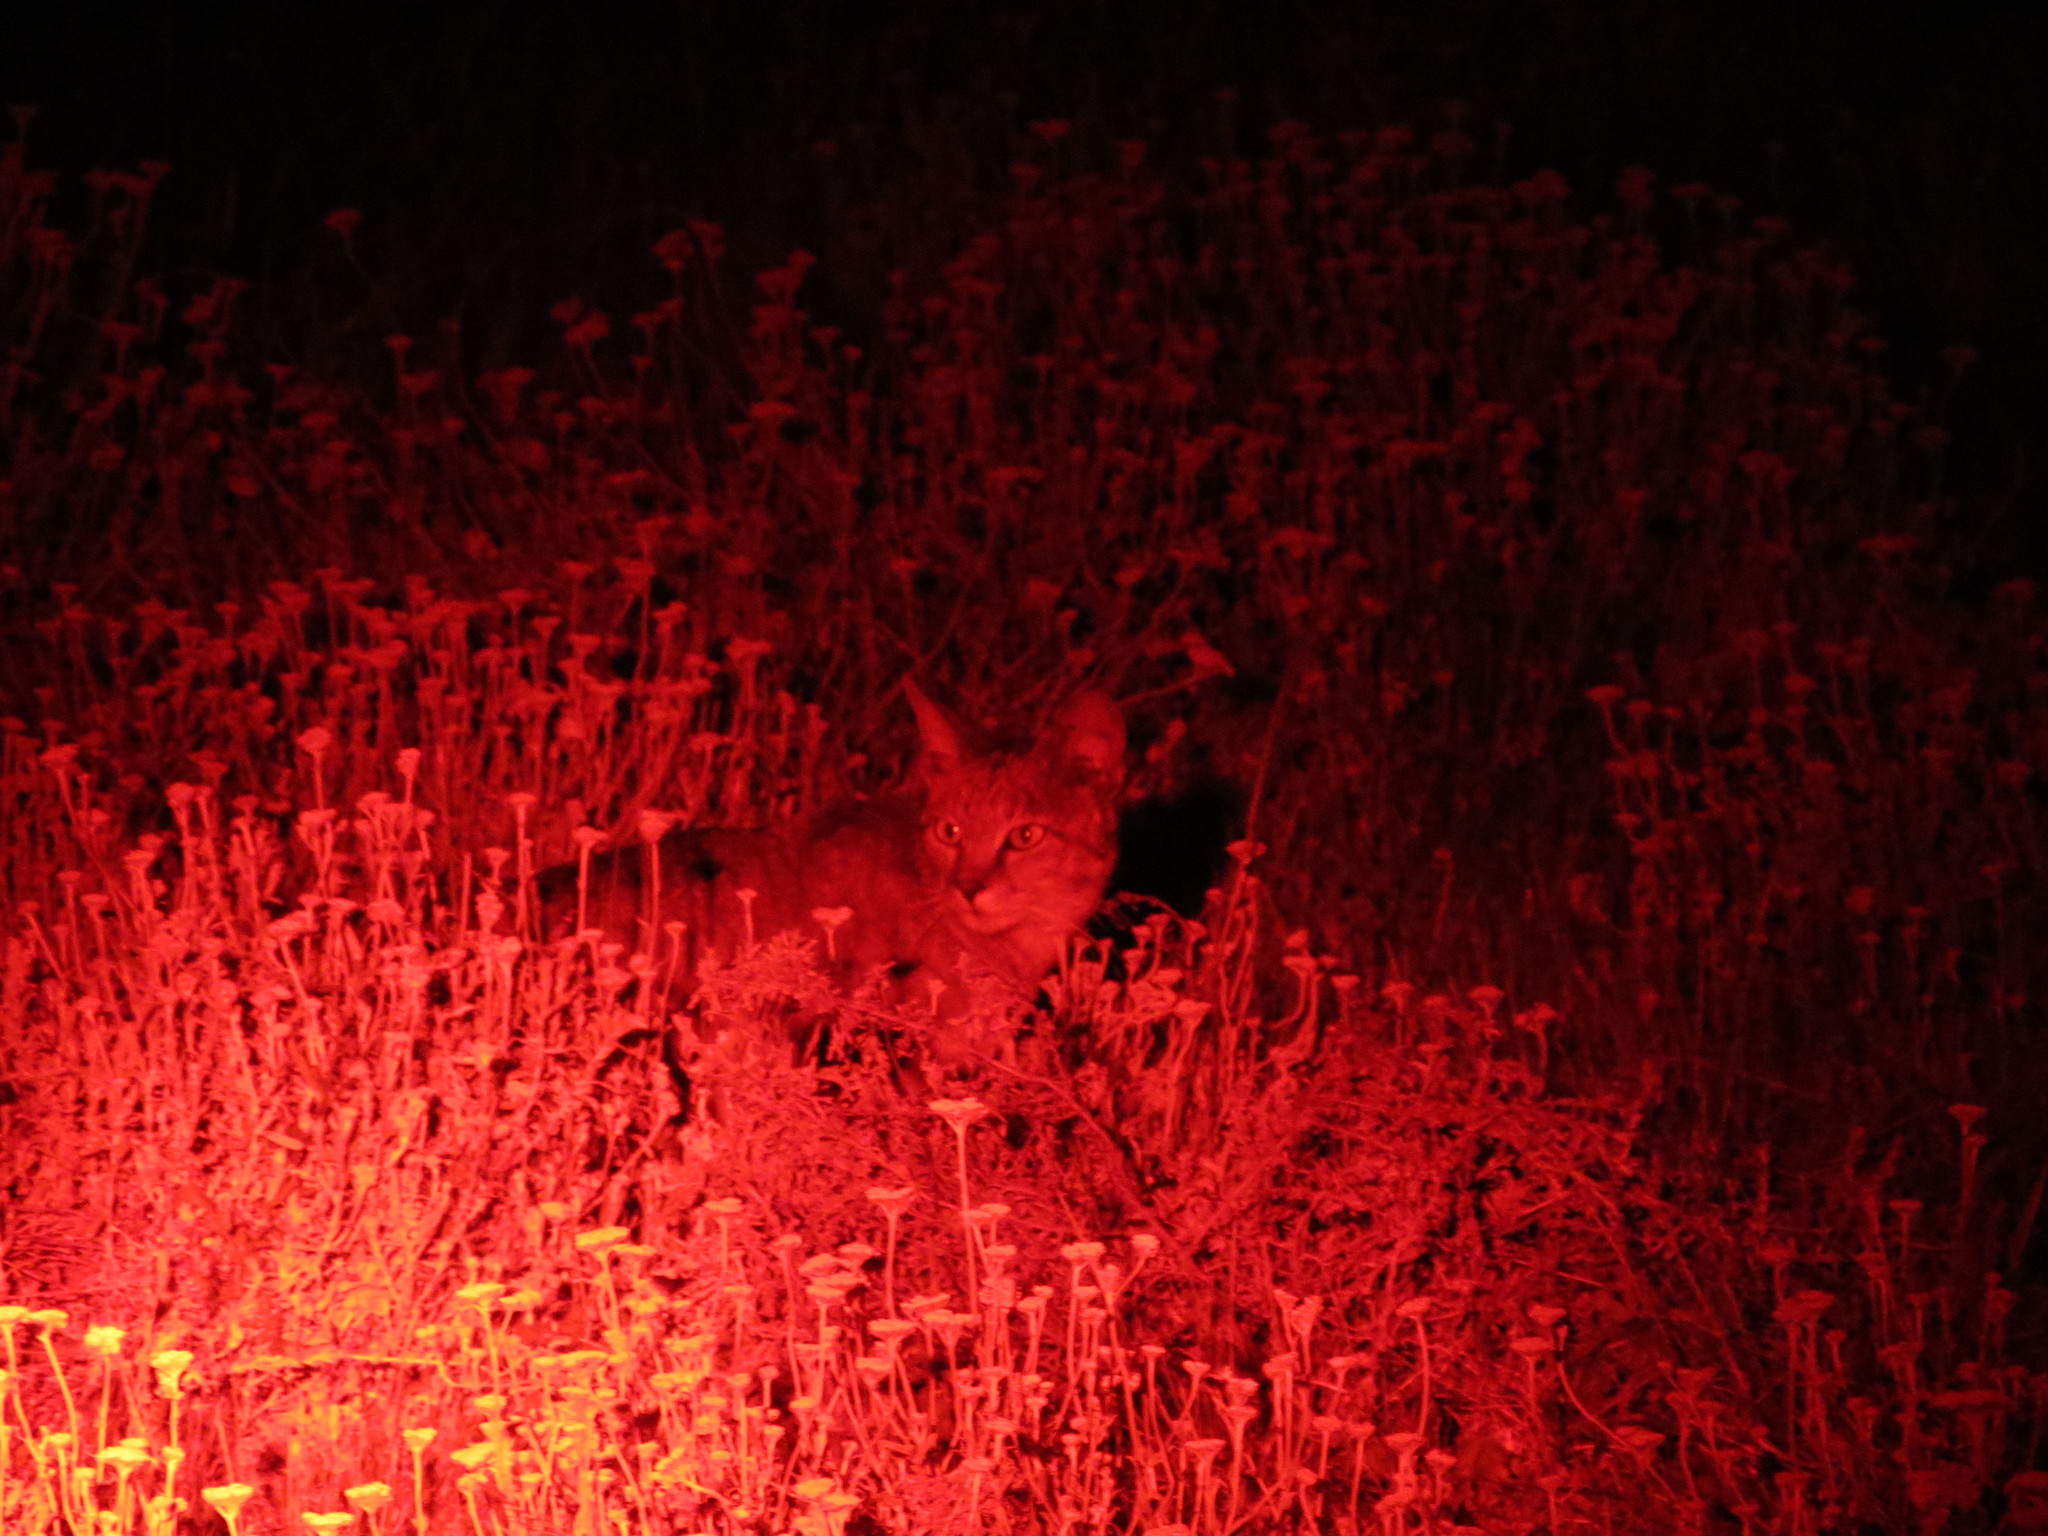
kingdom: Animalia
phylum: Chordata
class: Mammalia
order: Carnivora
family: Felidae
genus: Felis
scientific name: Felis silvestris
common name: Wildcat
